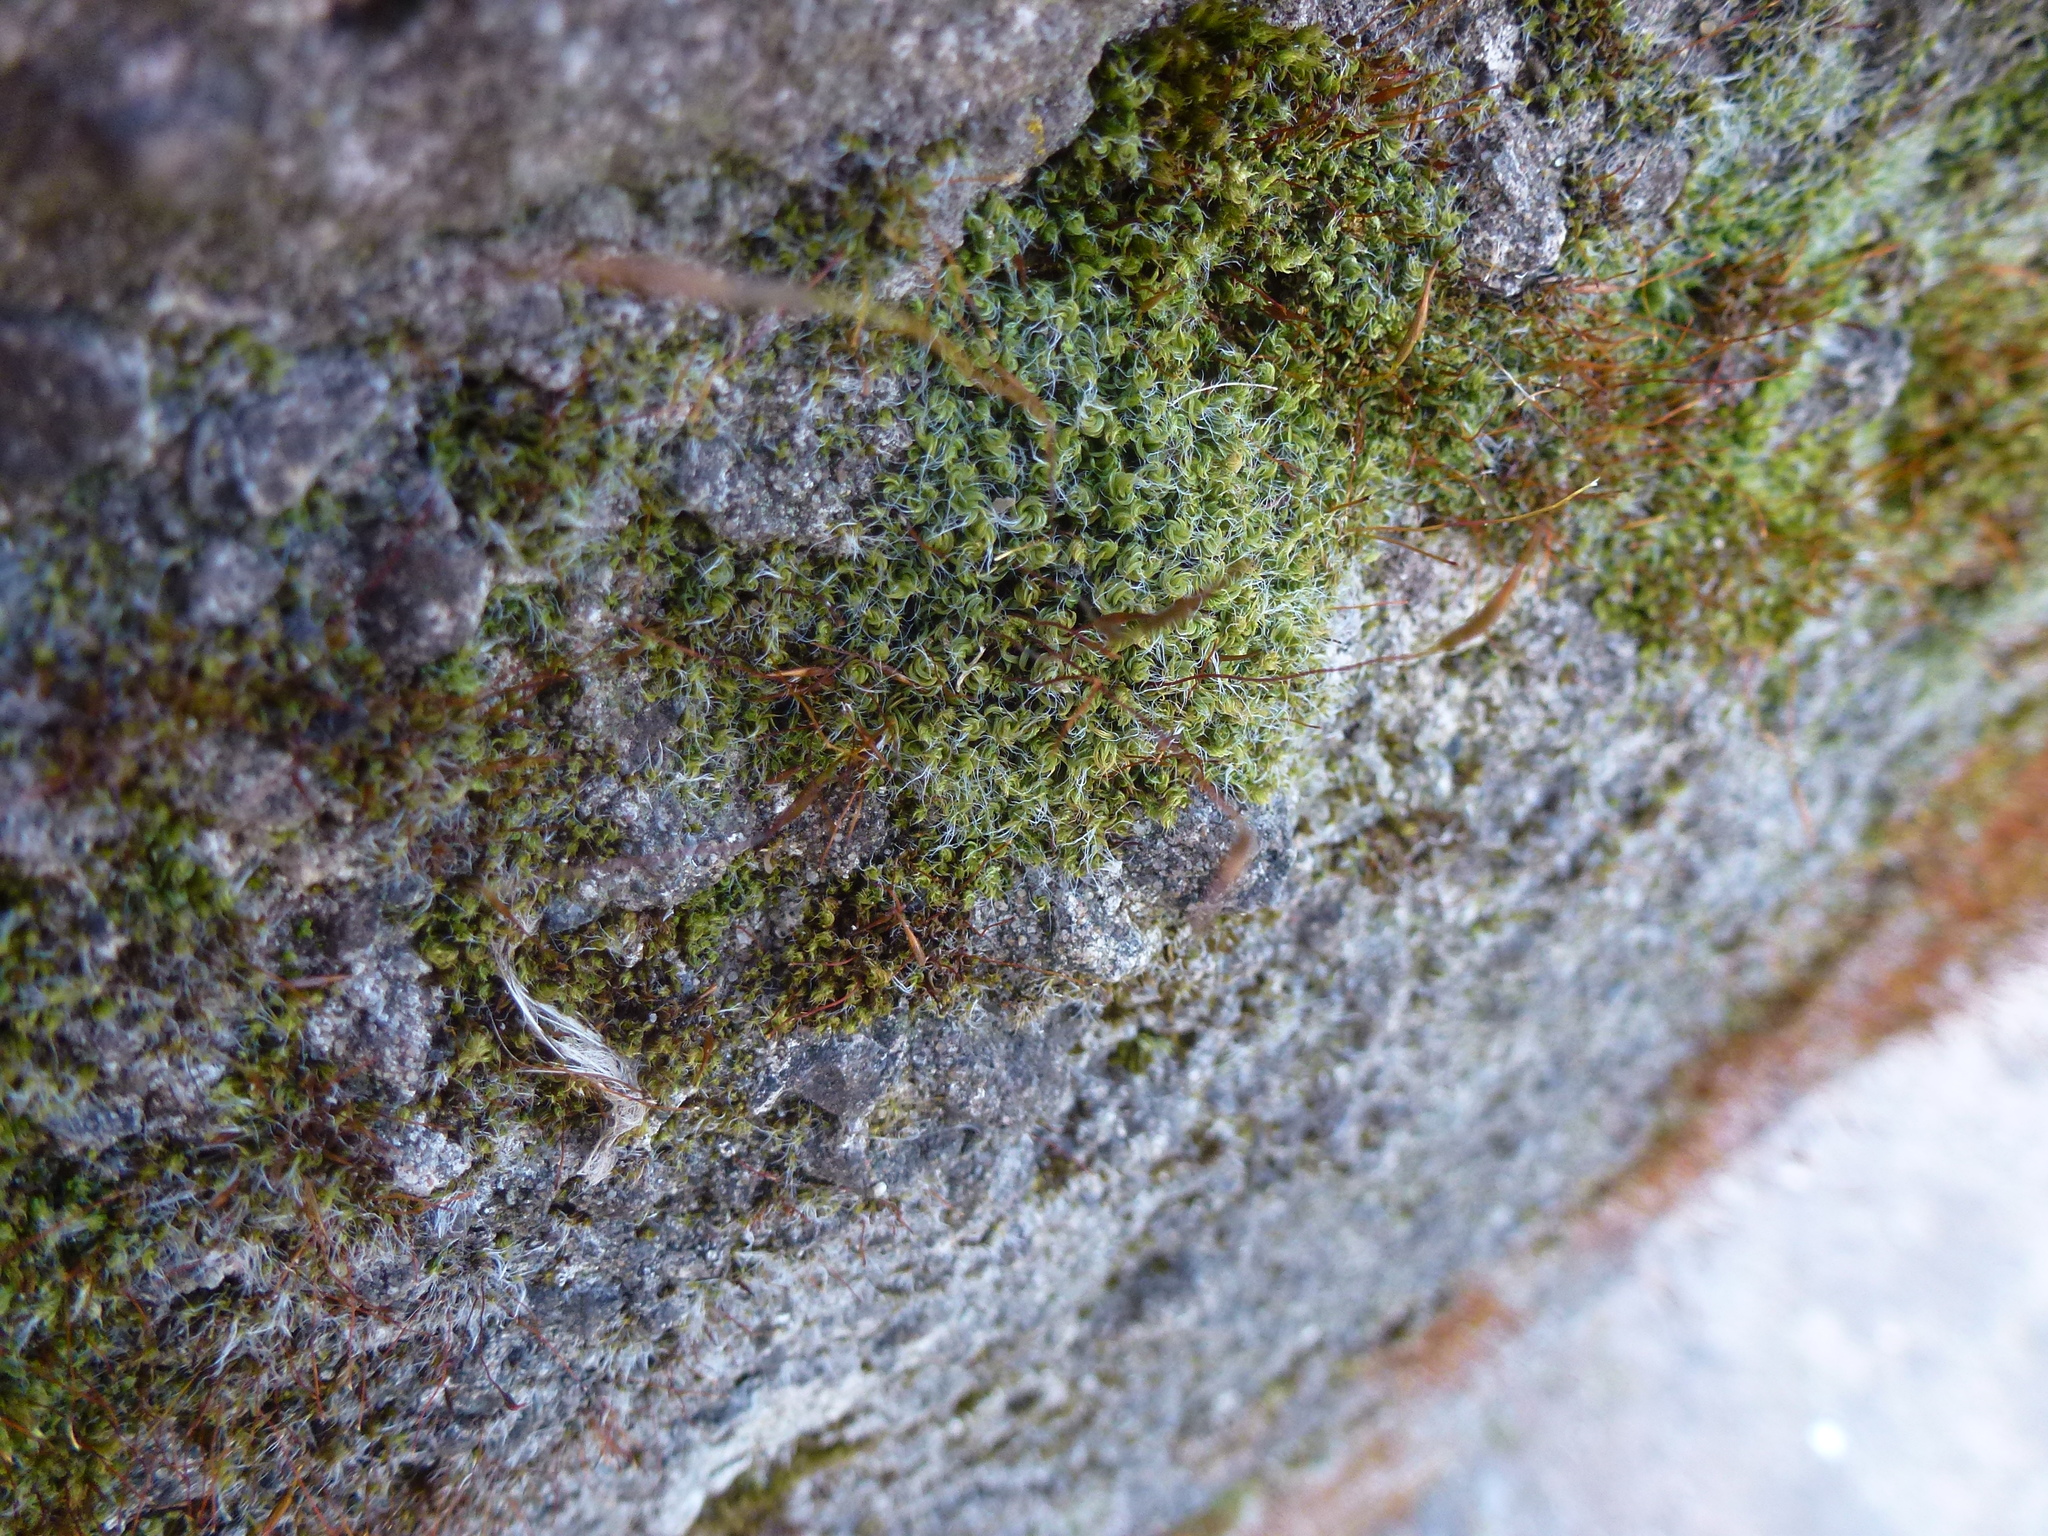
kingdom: Plantae
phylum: Bryophyta
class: Bryopsida
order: Pottiales
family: Pottiaceae
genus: Tortula
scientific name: Tortula muralis
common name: Wall screw-moss
